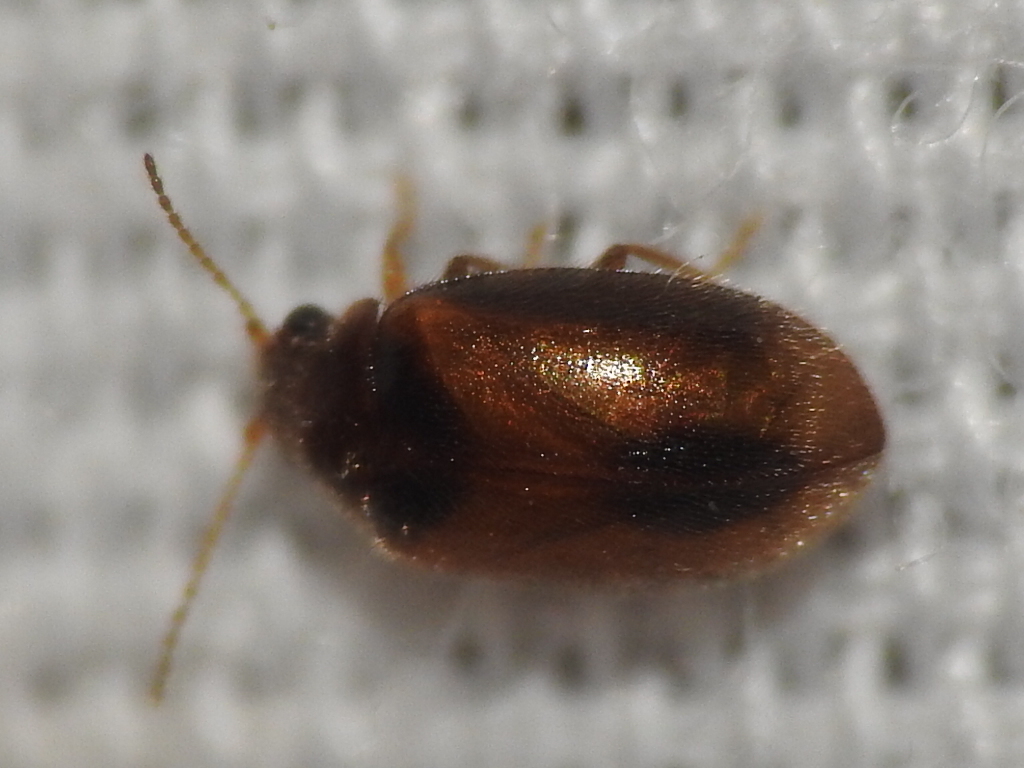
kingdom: Animalia
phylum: Arthropoda
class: Insecta
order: Coleoptera
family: Scirtidae
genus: Contacyphon
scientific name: Contacyphon
